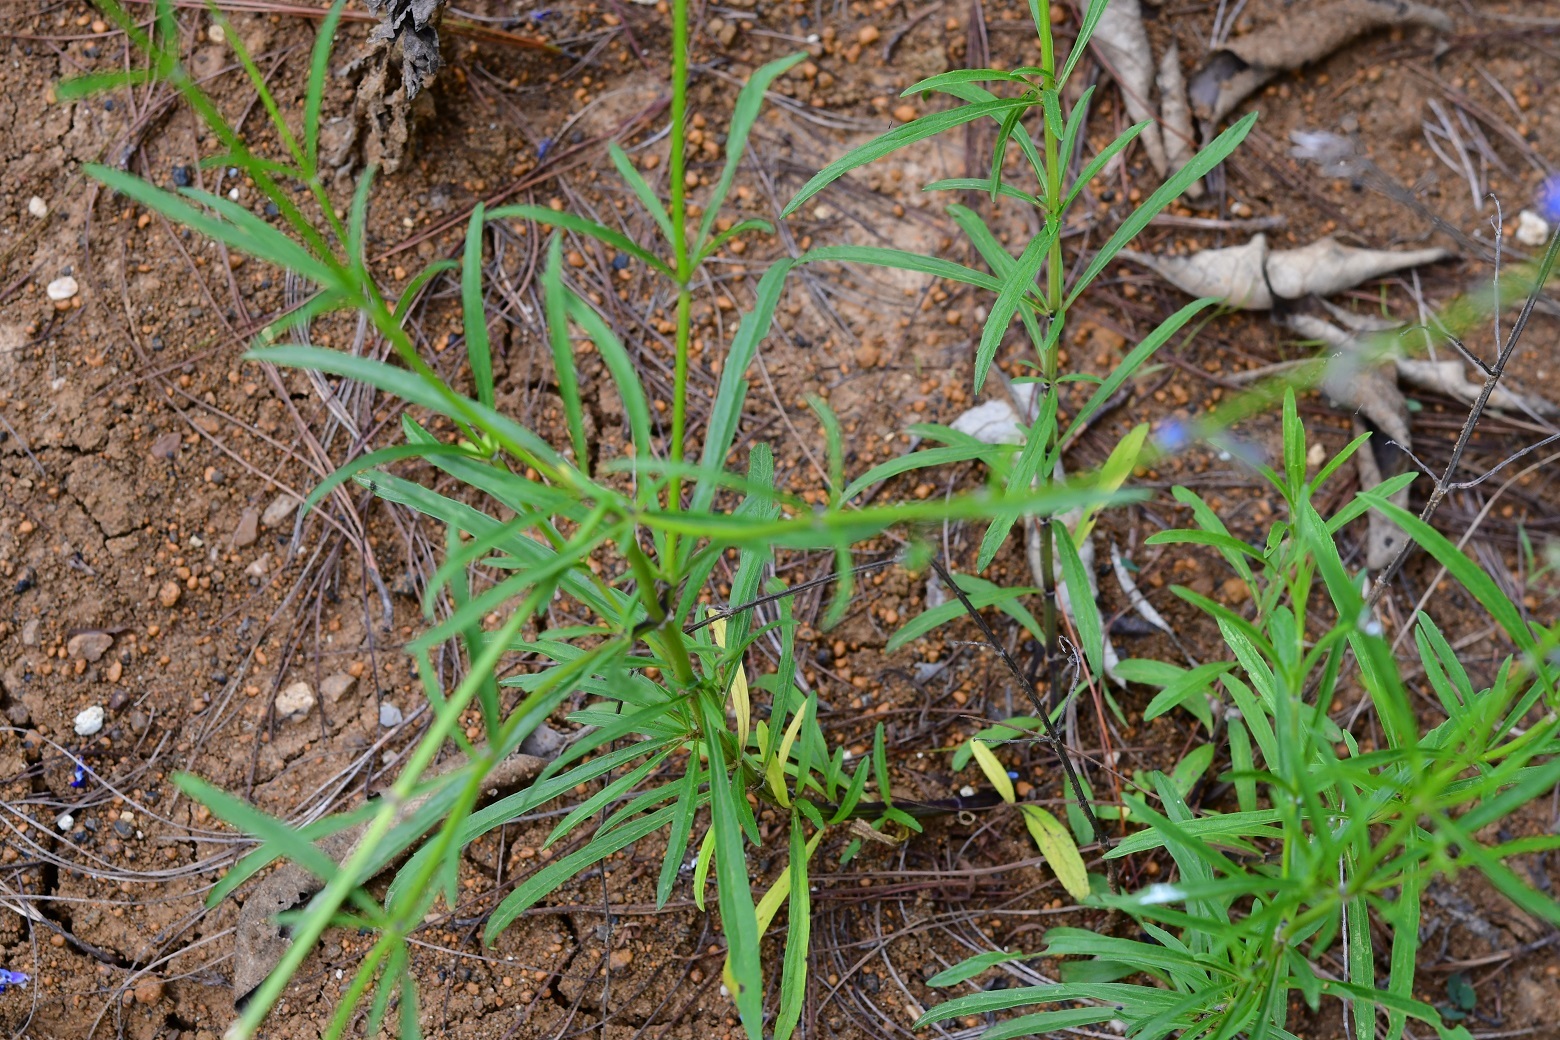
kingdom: Plantae
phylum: Tracheophyta
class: Magnoliopsida
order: Lamiales
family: Lamiaceae
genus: Salvia
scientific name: Salvia reptans
